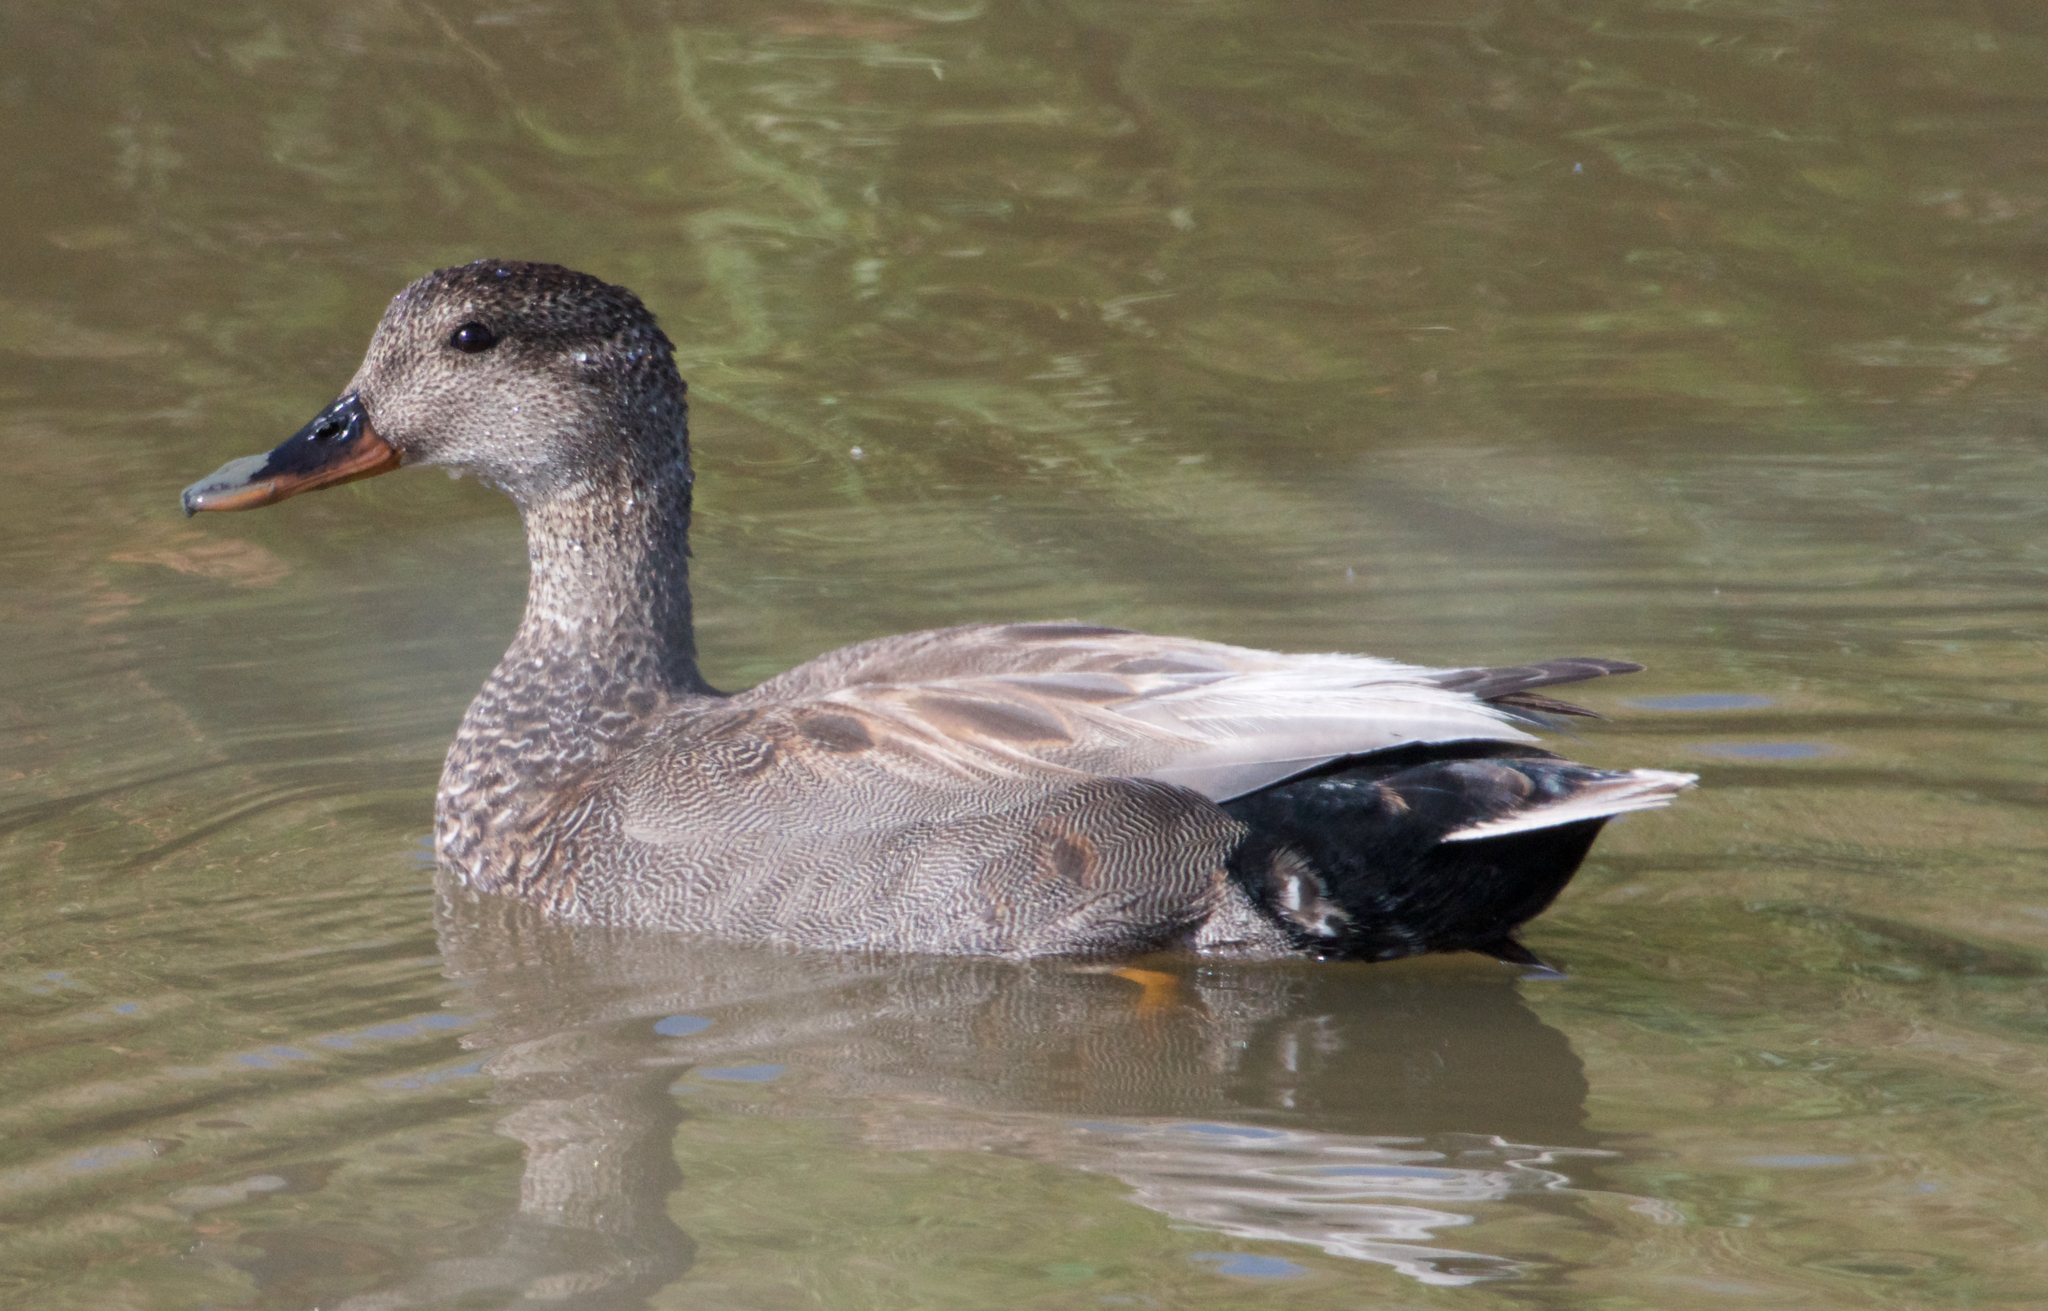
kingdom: Animalia
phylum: Chordata
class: Aves
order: Anseriformes
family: Anatidae
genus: Mareca
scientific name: Mareca strepera
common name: Gadwall
